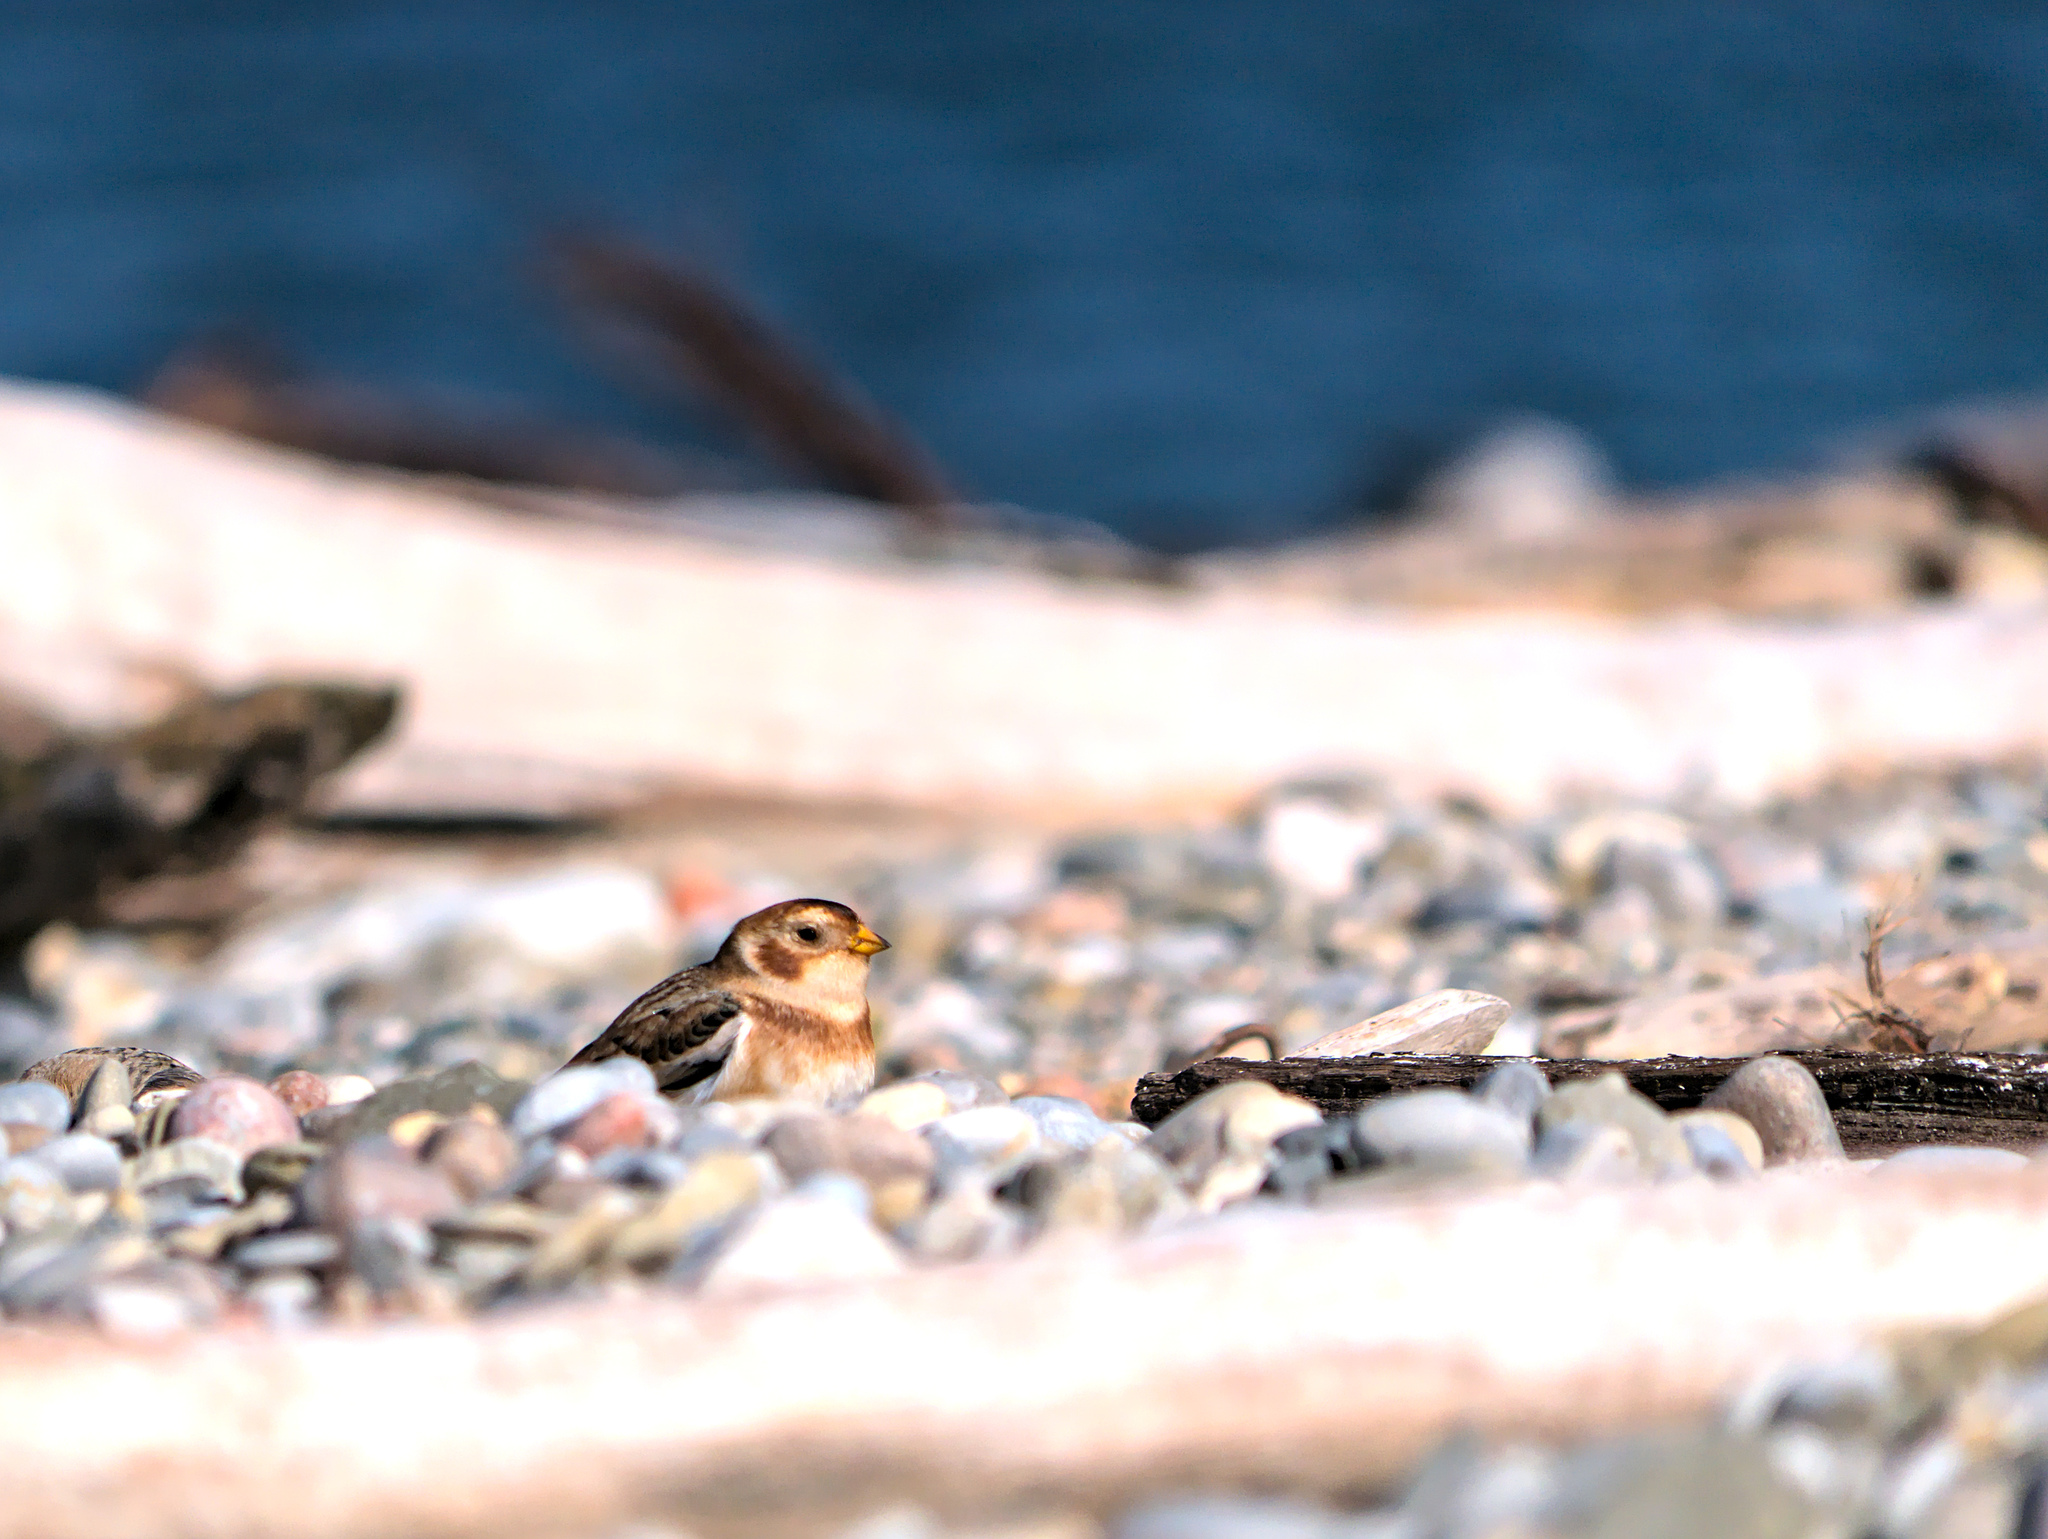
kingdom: Animalia
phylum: Chordata
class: Aves
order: Passeriformes
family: Calcariidae
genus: Plectrophenax
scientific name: Plectrophenax nivalis
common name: Snow bunting
